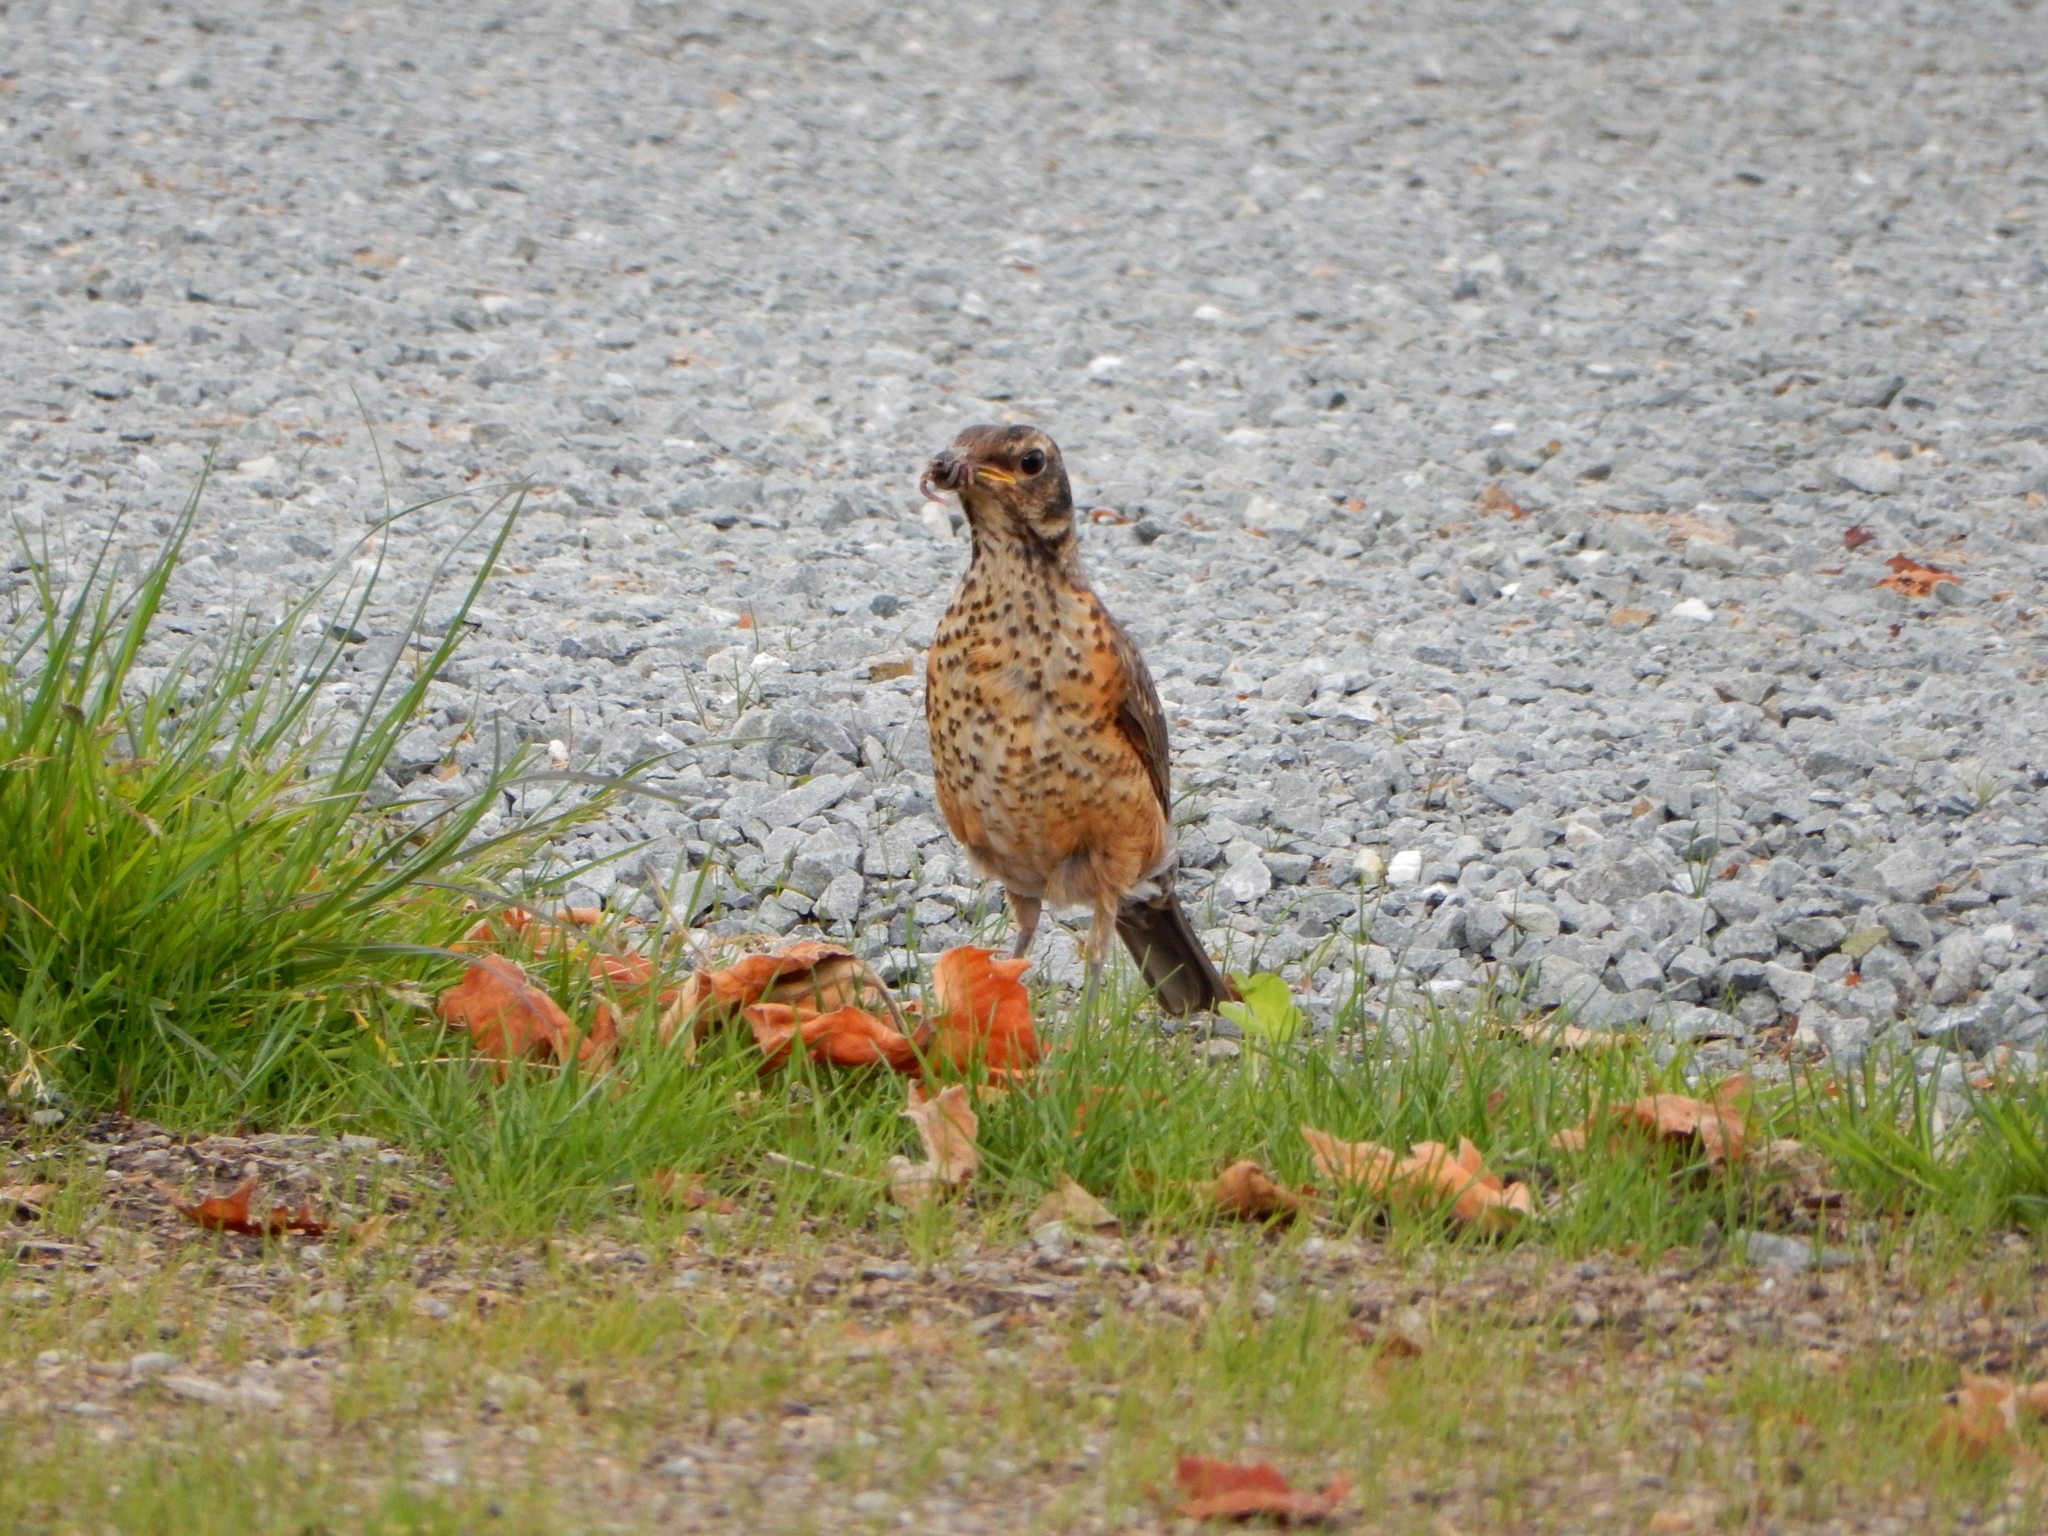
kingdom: Animalia
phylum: Chordata
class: Aves
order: Passeriformes
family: Turdidae
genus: Turdus
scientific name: Turdus migratorius
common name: American robin
